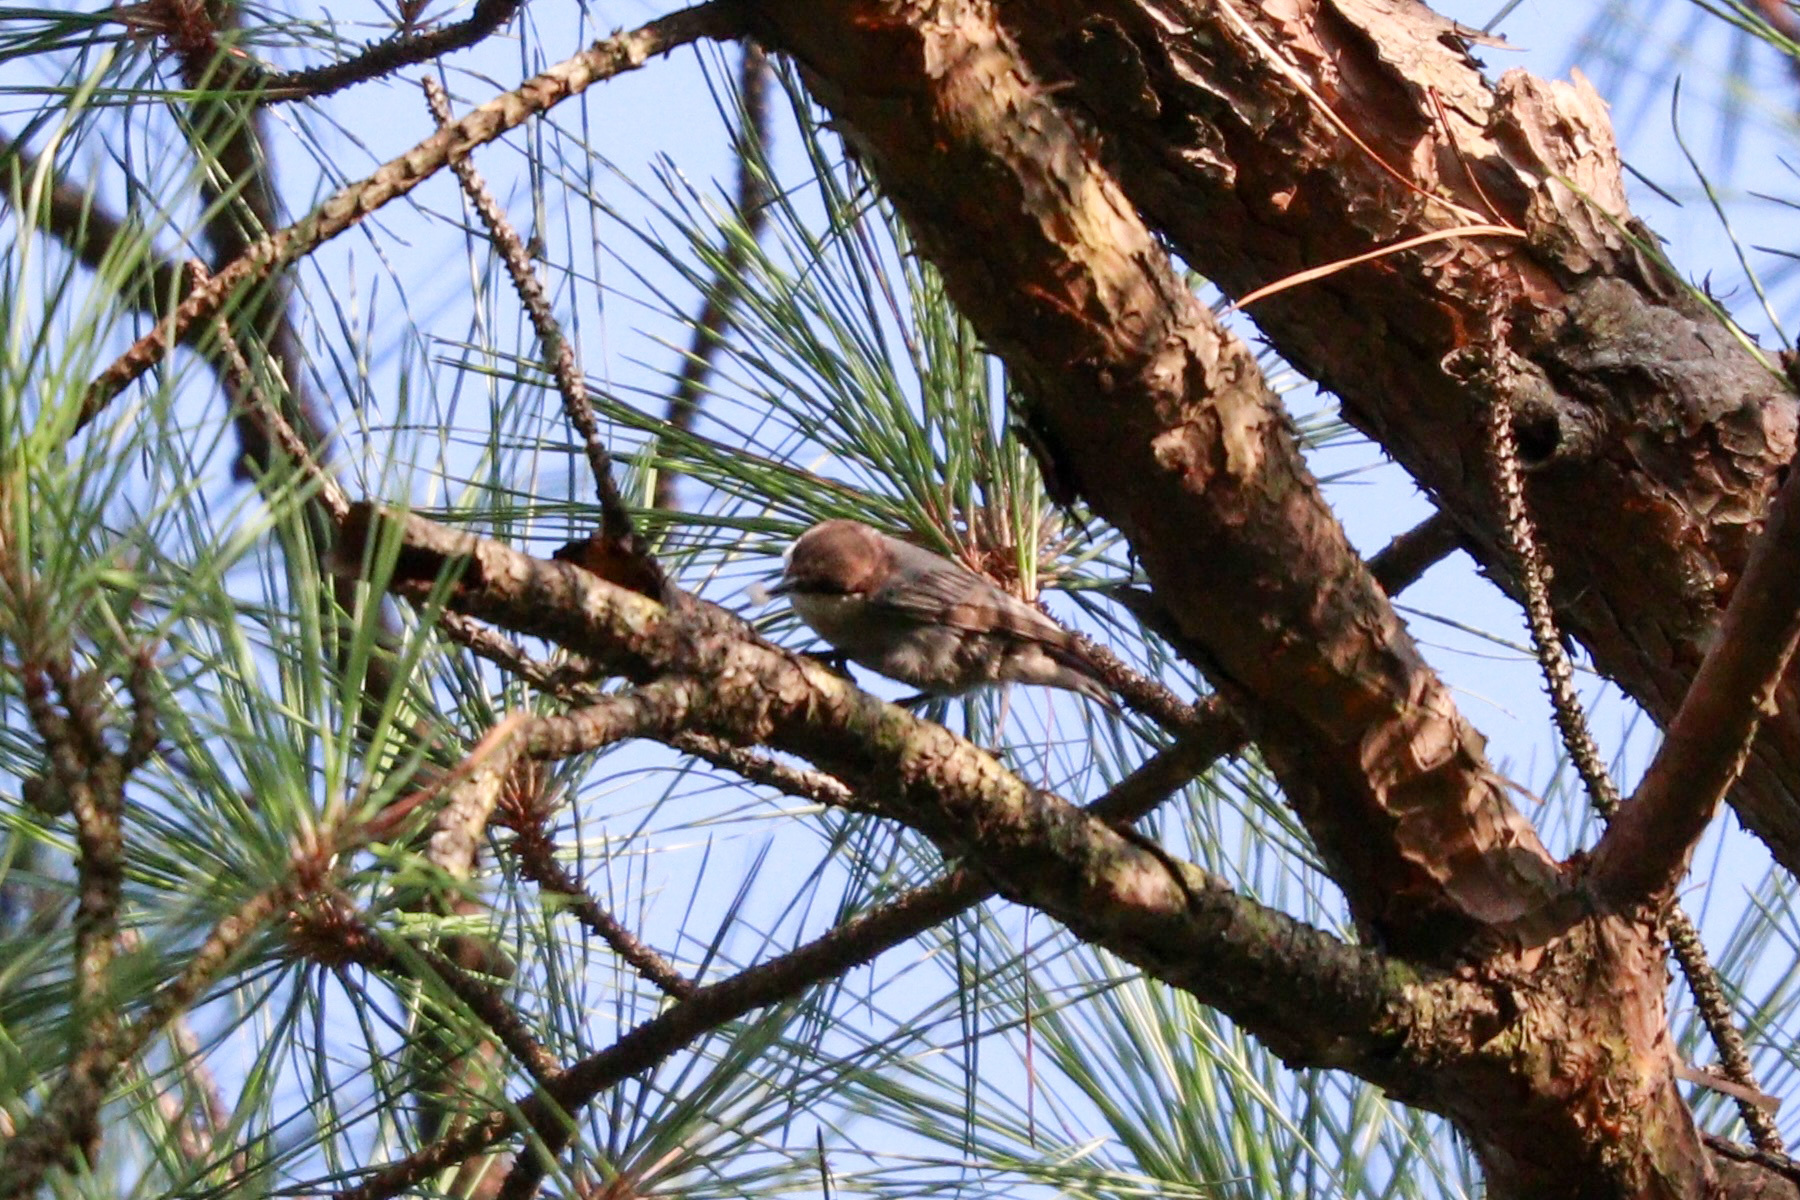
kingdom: Animalia
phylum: Chordata
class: Aves
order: Passeriformes
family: Sittidae
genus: Sitta
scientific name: Sitta pusilla
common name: Brown-headed nuthatch
